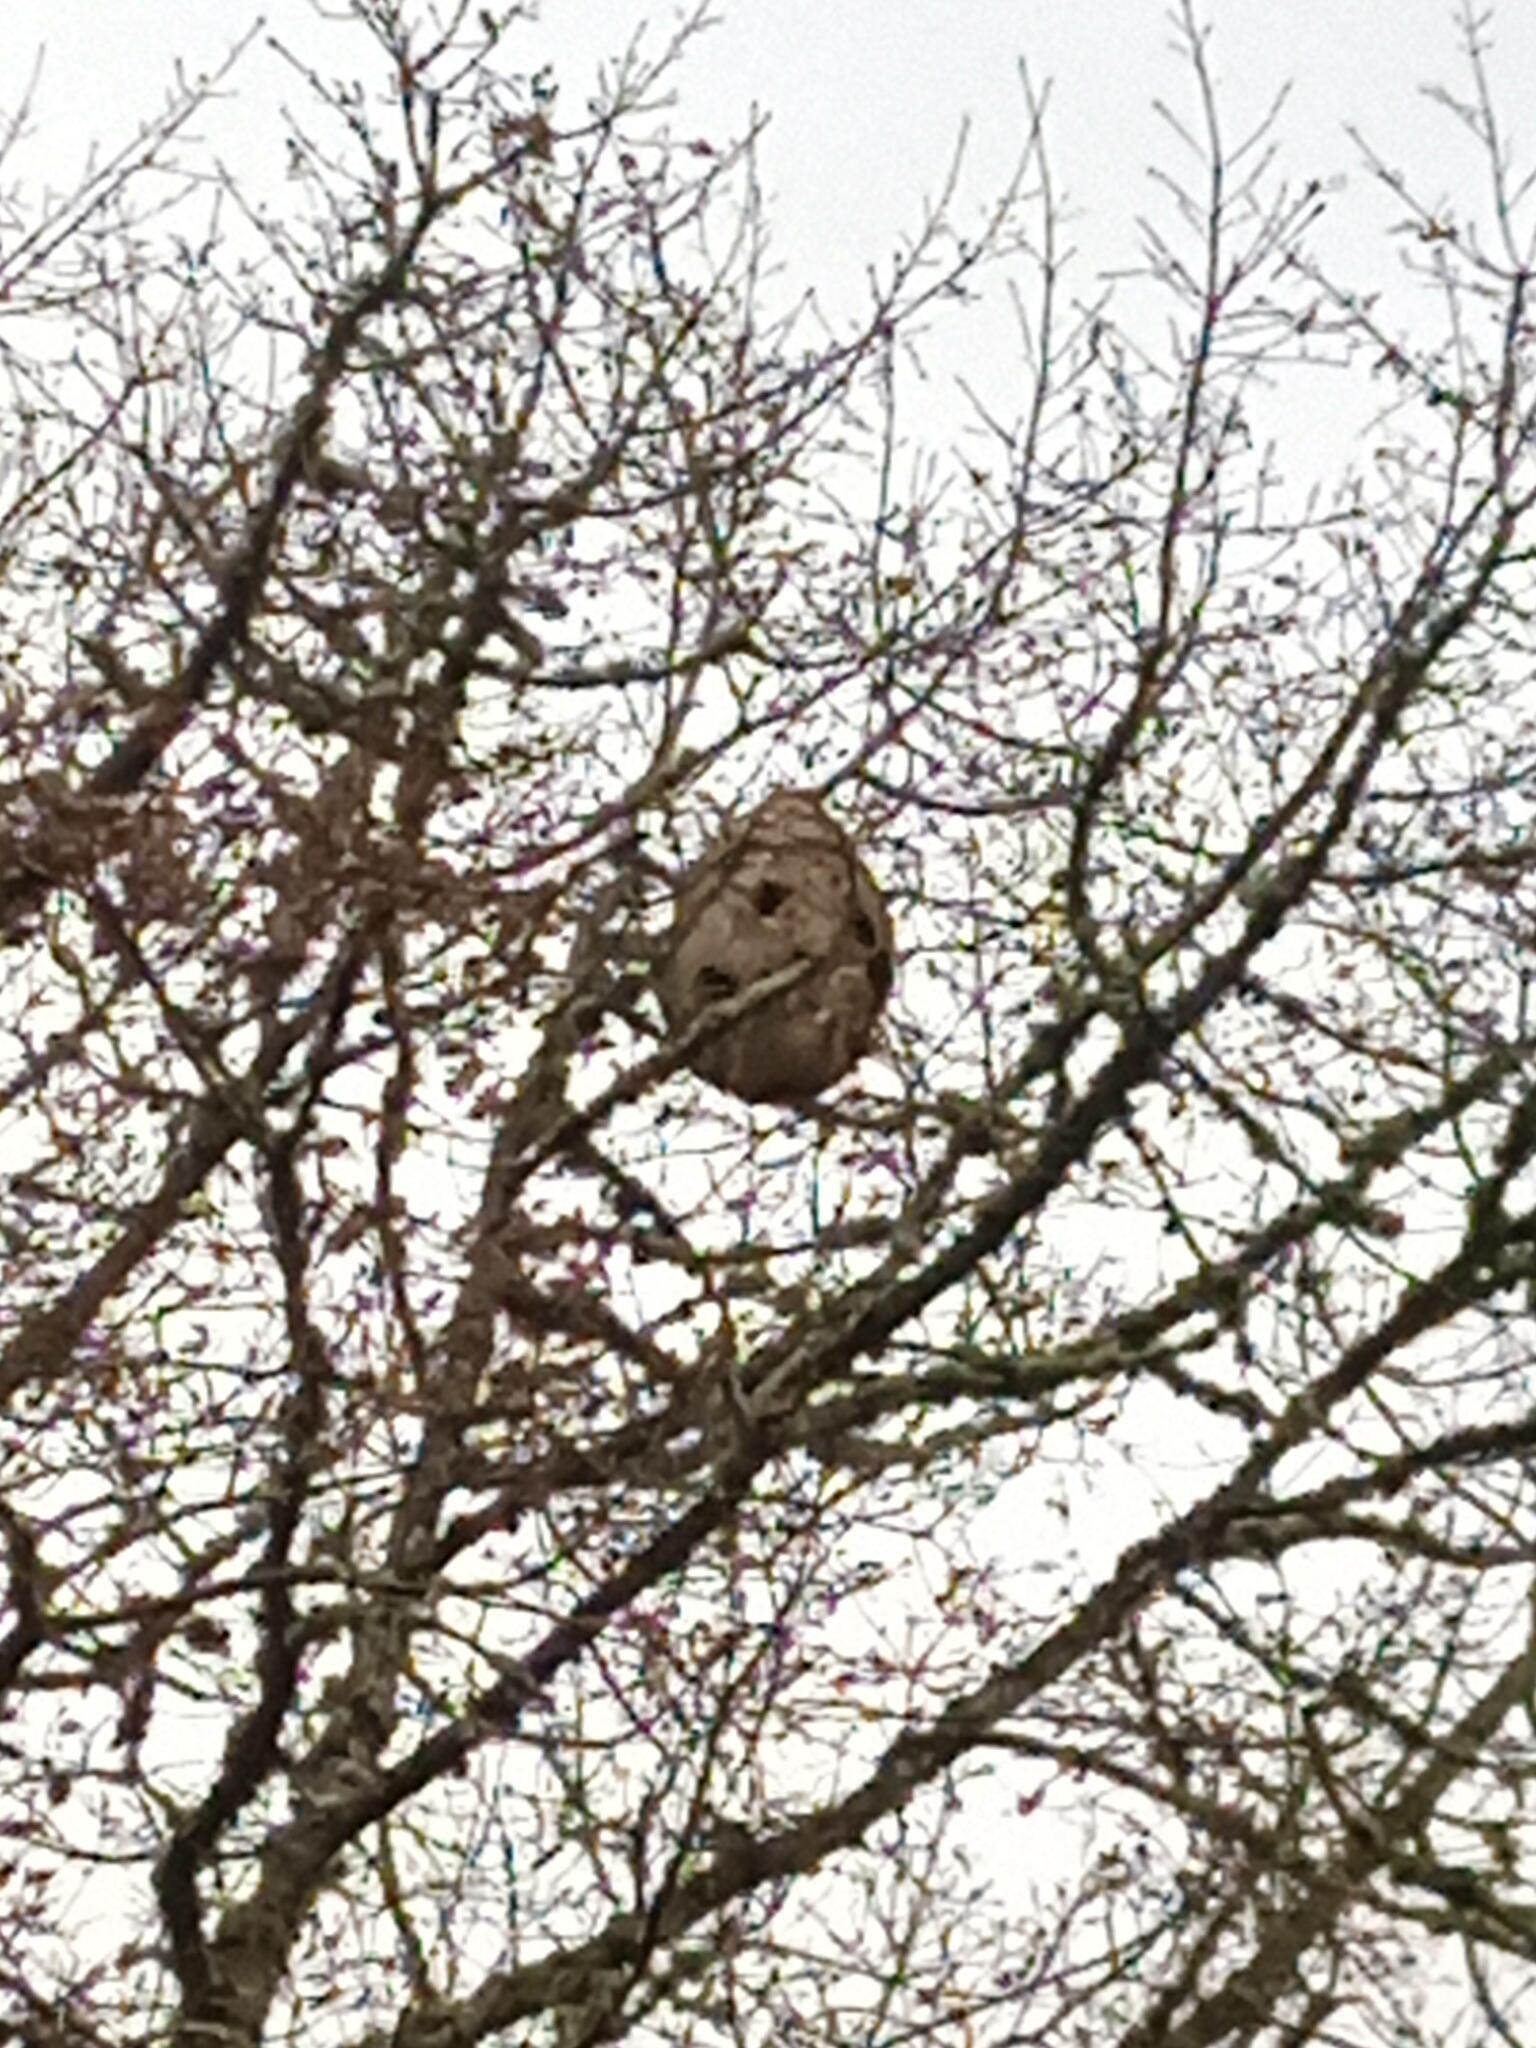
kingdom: Animalia
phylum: Arthropoda
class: Insecta
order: Hymenoptera
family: Vespidae
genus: Vespa
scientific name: Vespa velutina
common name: Asian hornet
